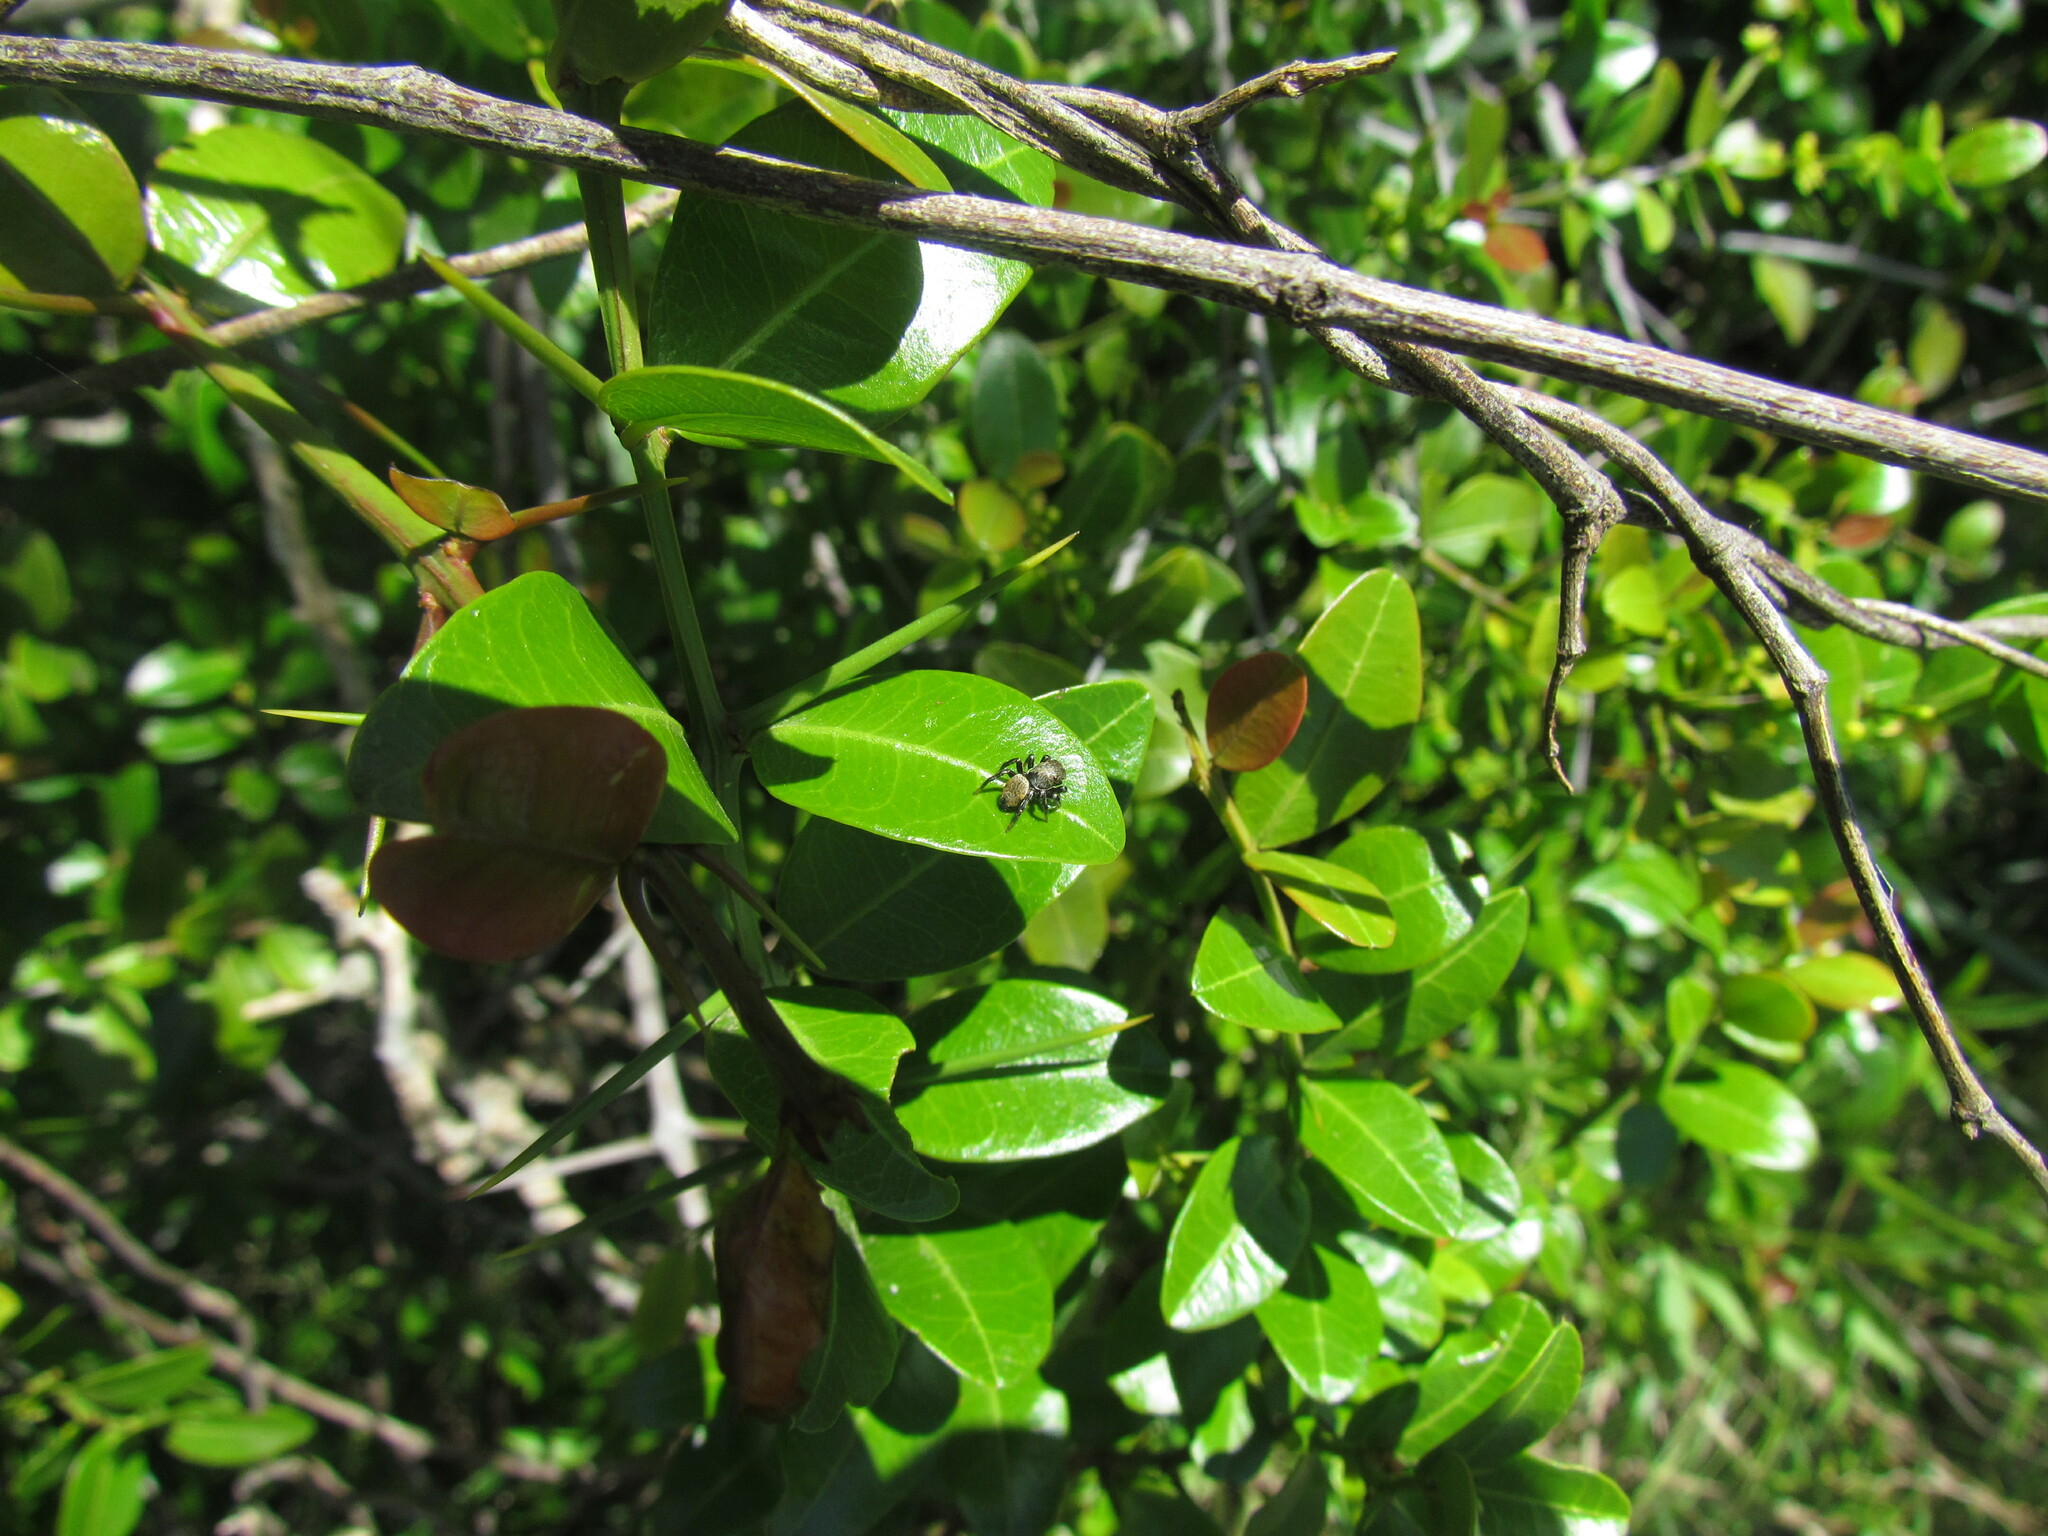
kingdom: Animalia
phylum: Arthropoda
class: Arachnida
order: Araneae
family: Salticidae
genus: Phiale
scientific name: Phiale roburifoliata
